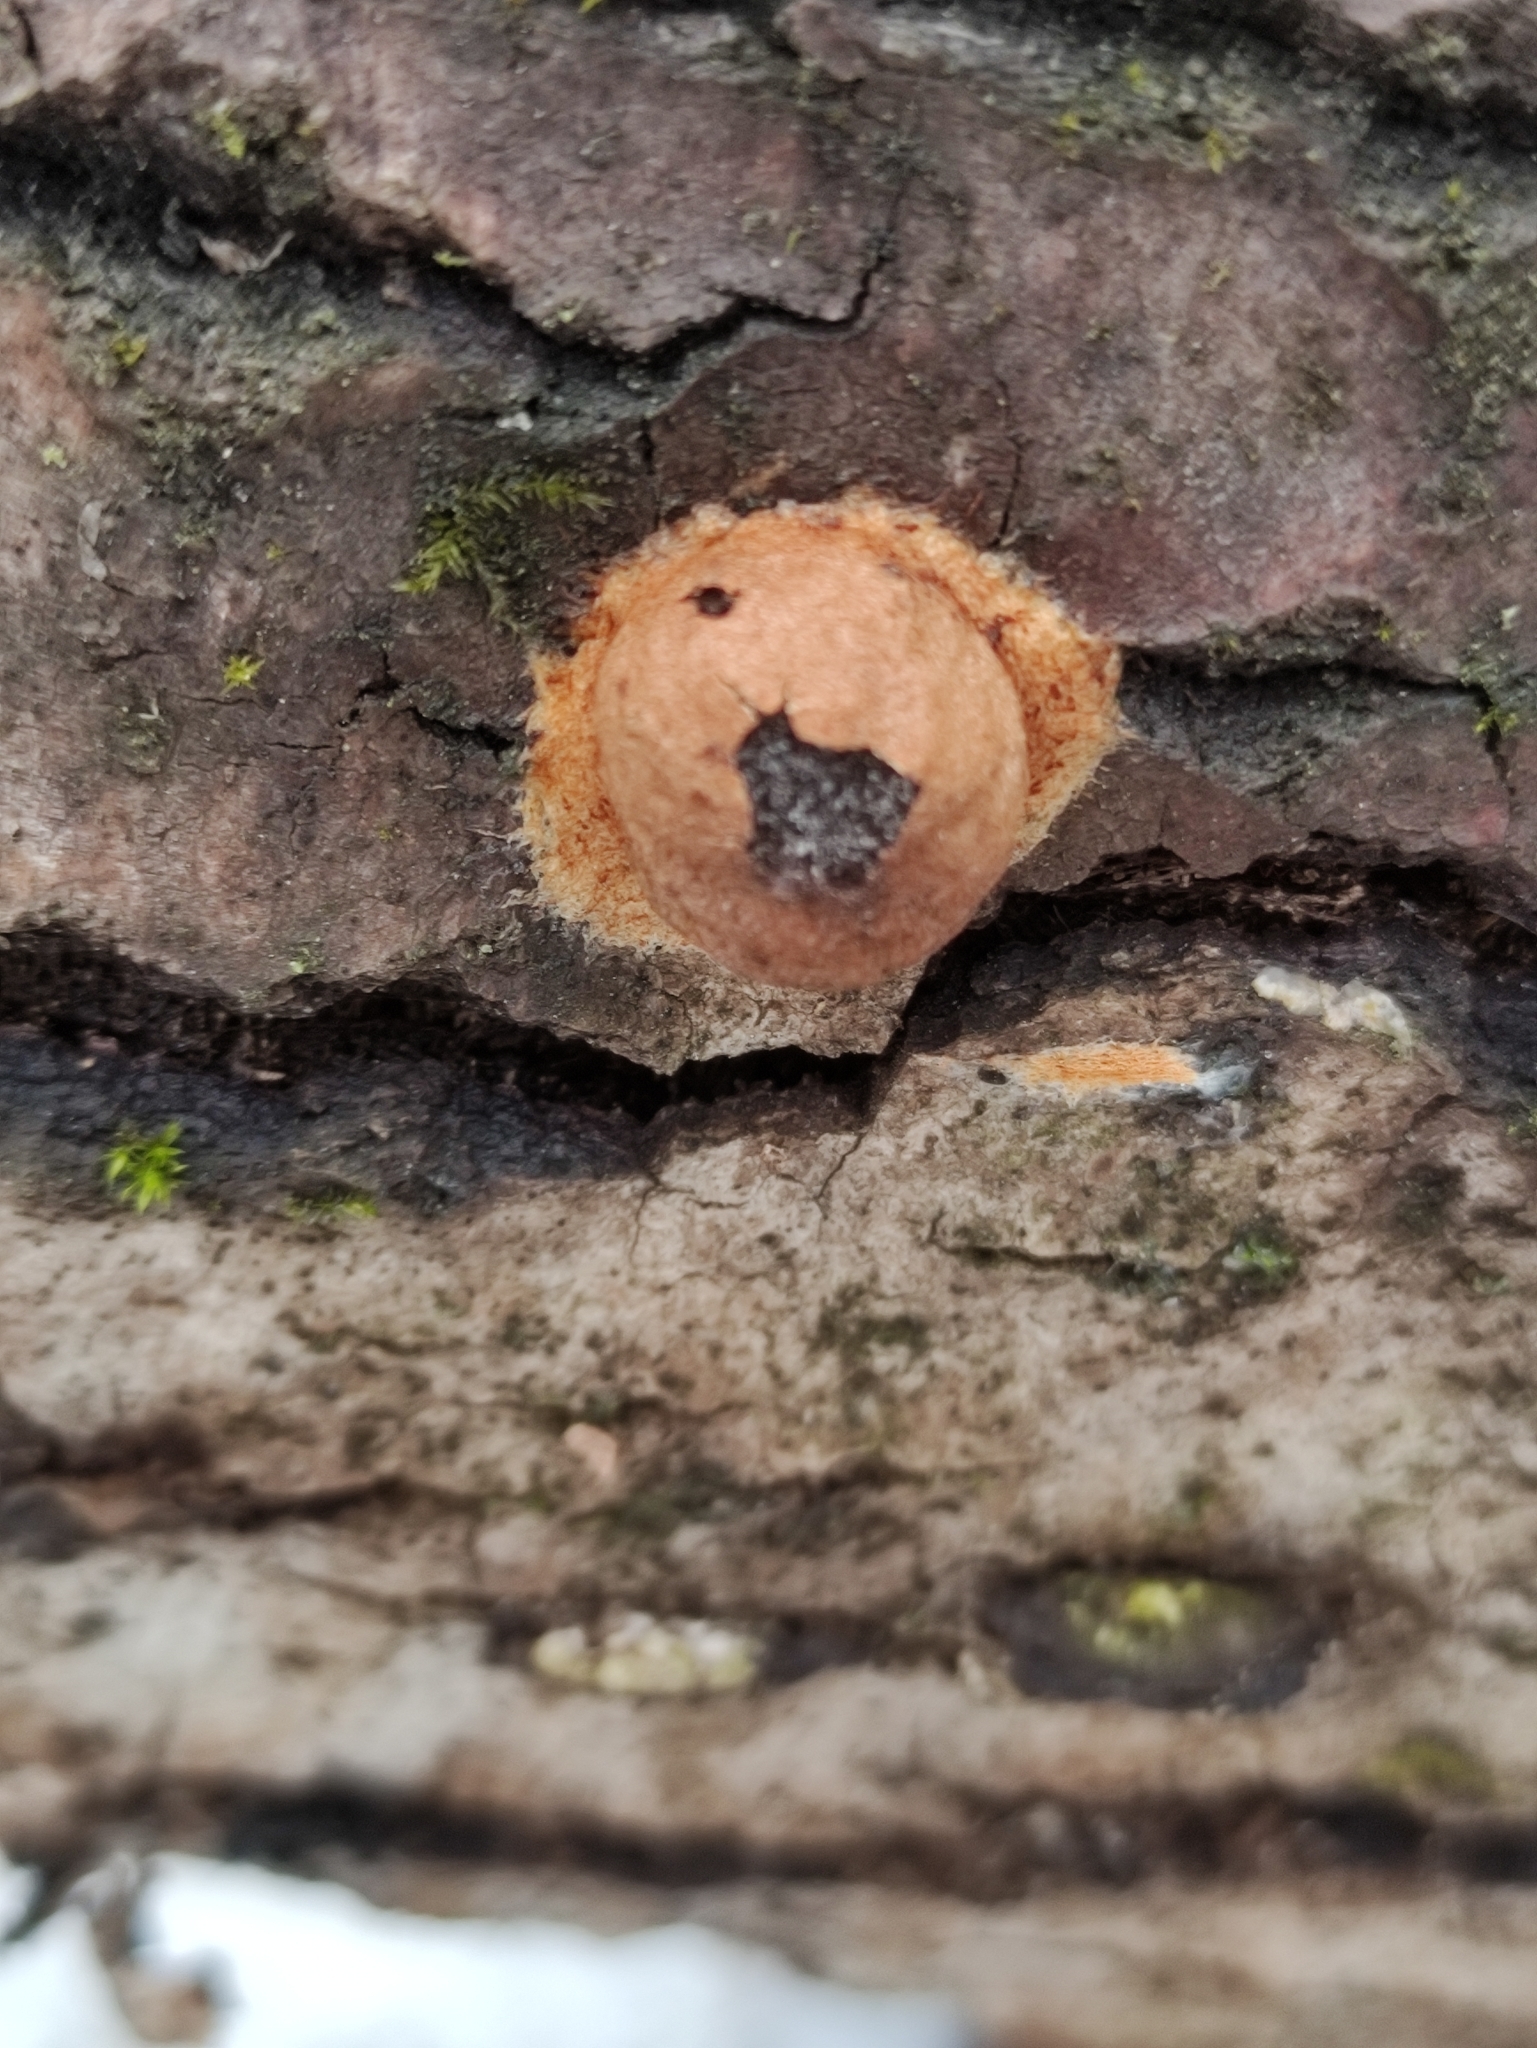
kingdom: Protozoa
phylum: Mycetozoa
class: Myxomycetes
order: Physarales
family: Physaraceae
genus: Fuligo
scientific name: Fuligo leviderma
